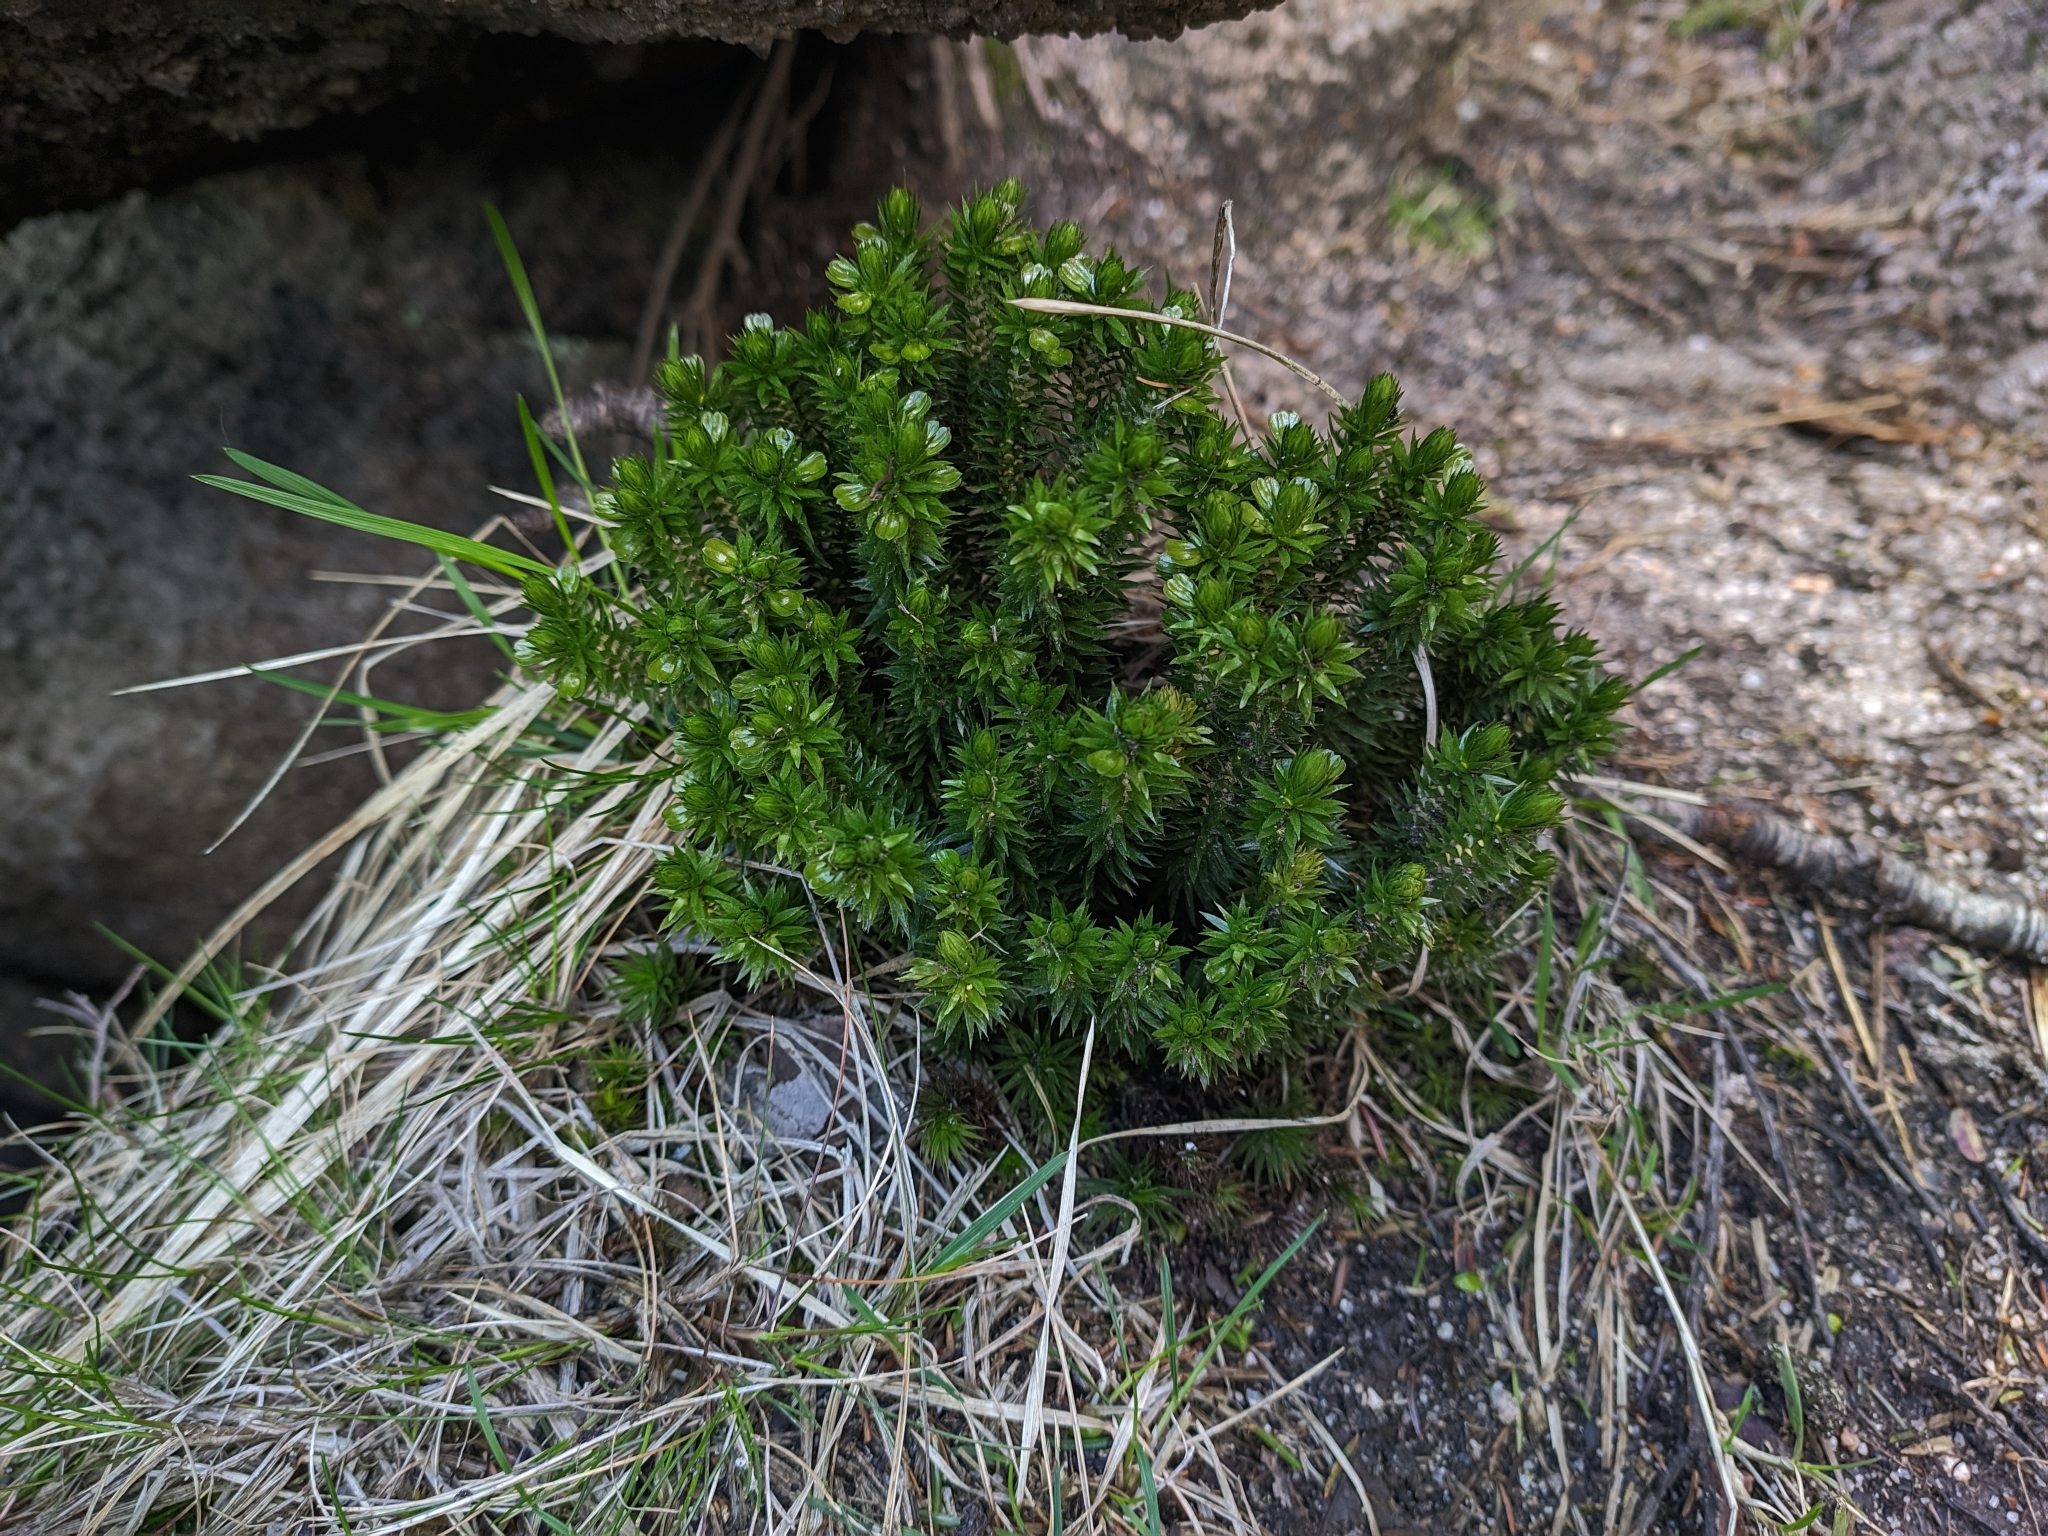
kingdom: Plantae
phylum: Tracheophyta
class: Lycopodiopsida
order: Lycopodiales
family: Lycopodiaceae
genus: Huperzia
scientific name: Huperzia selago
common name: Northern firmoss
